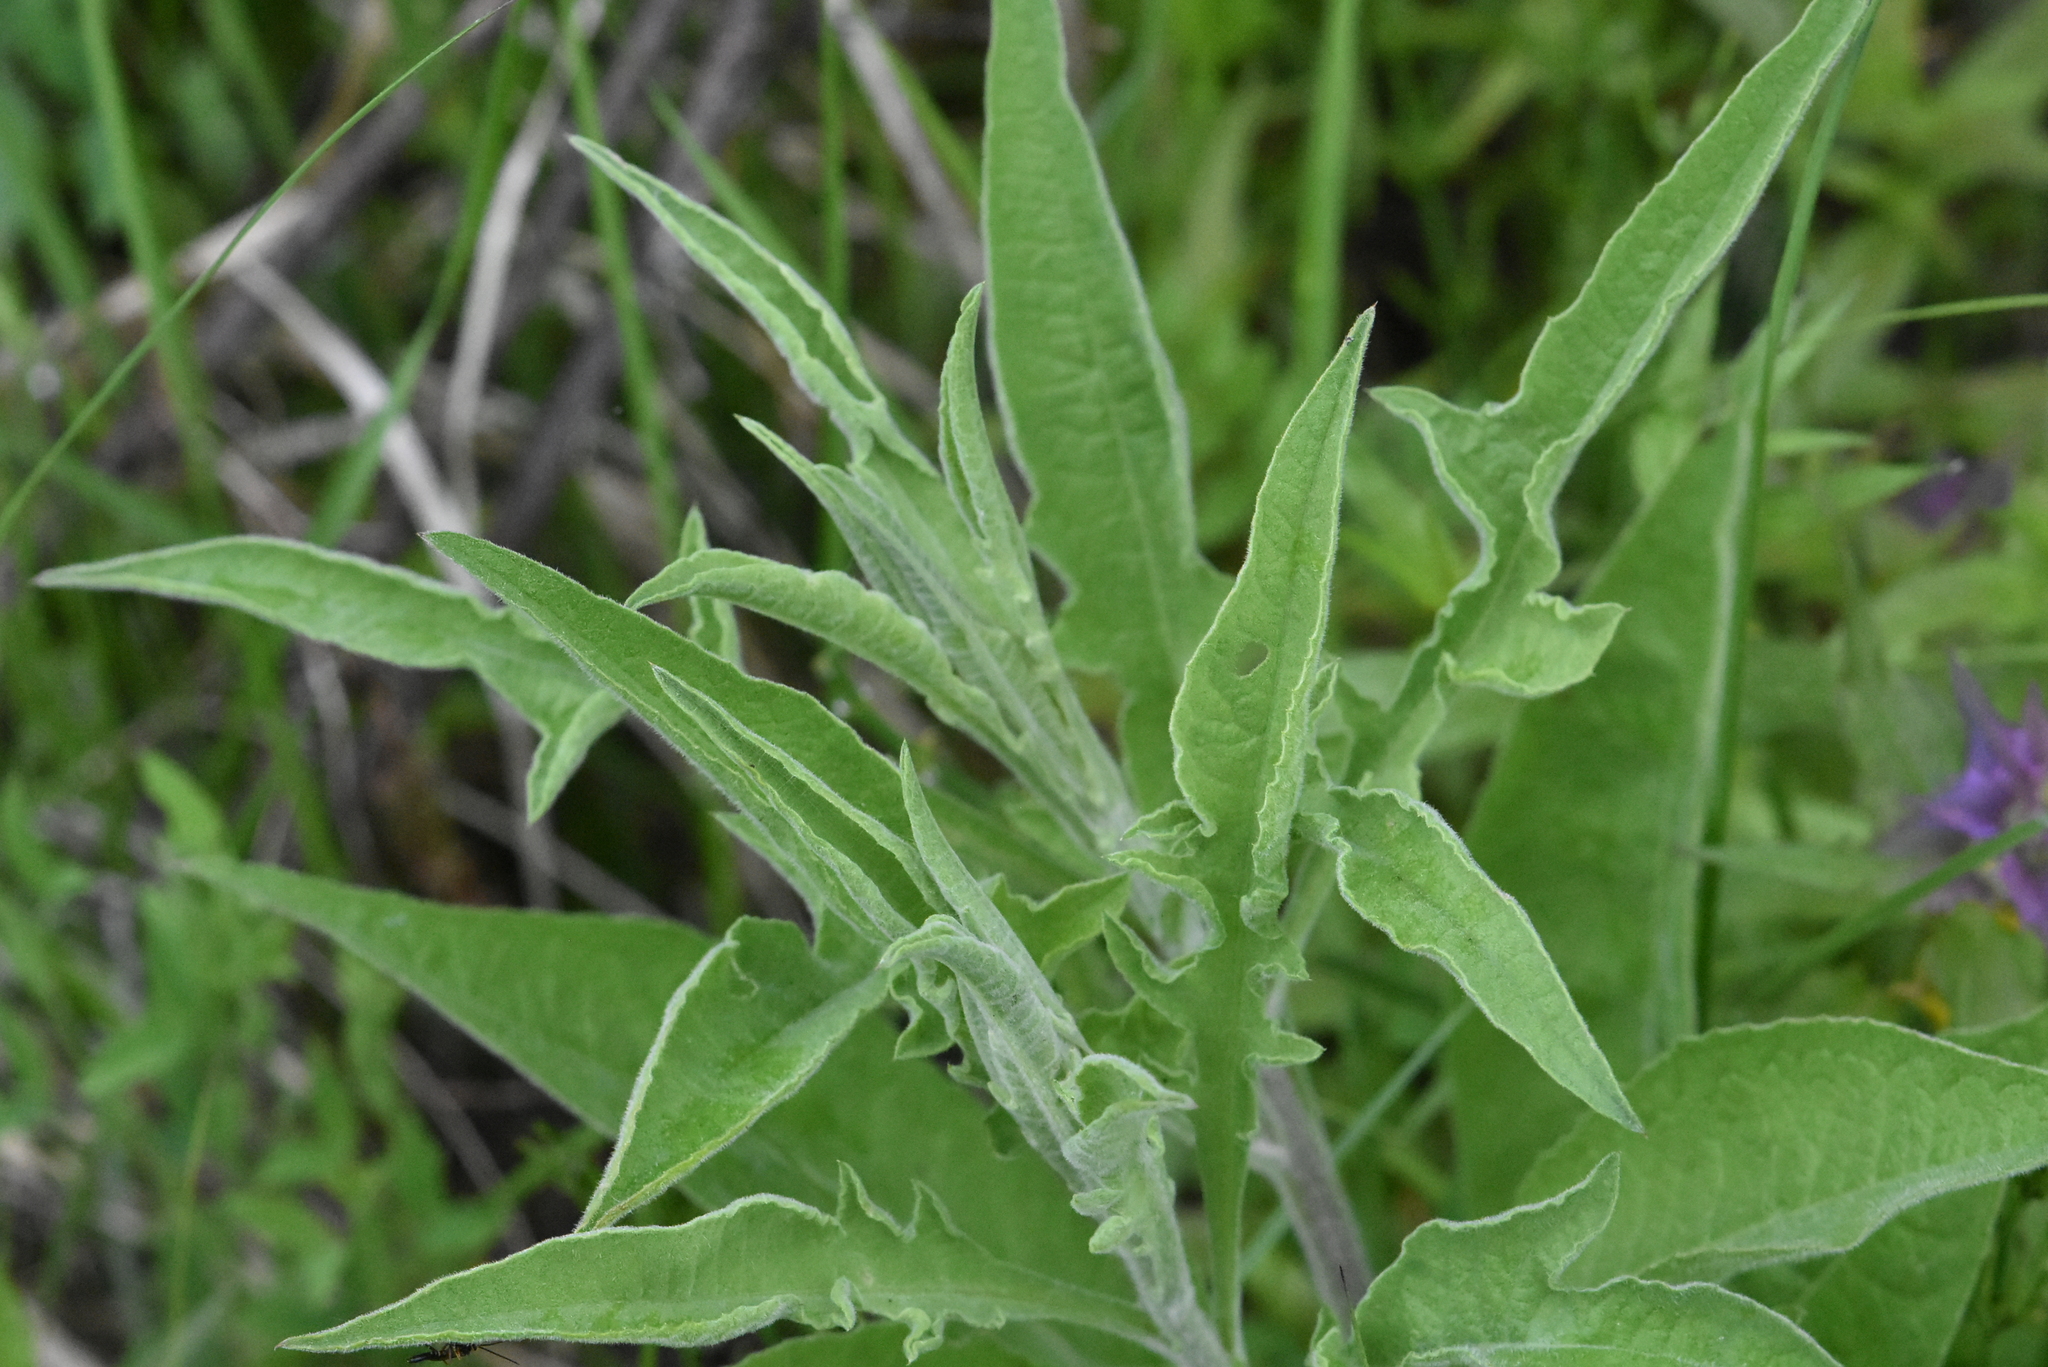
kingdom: Plantae
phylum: Tracheophyta
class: Magnoliopsida
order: Asterales
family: Asteraceae
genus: Centaurea
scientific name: Centaurea jacea
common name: Brown knapweed
